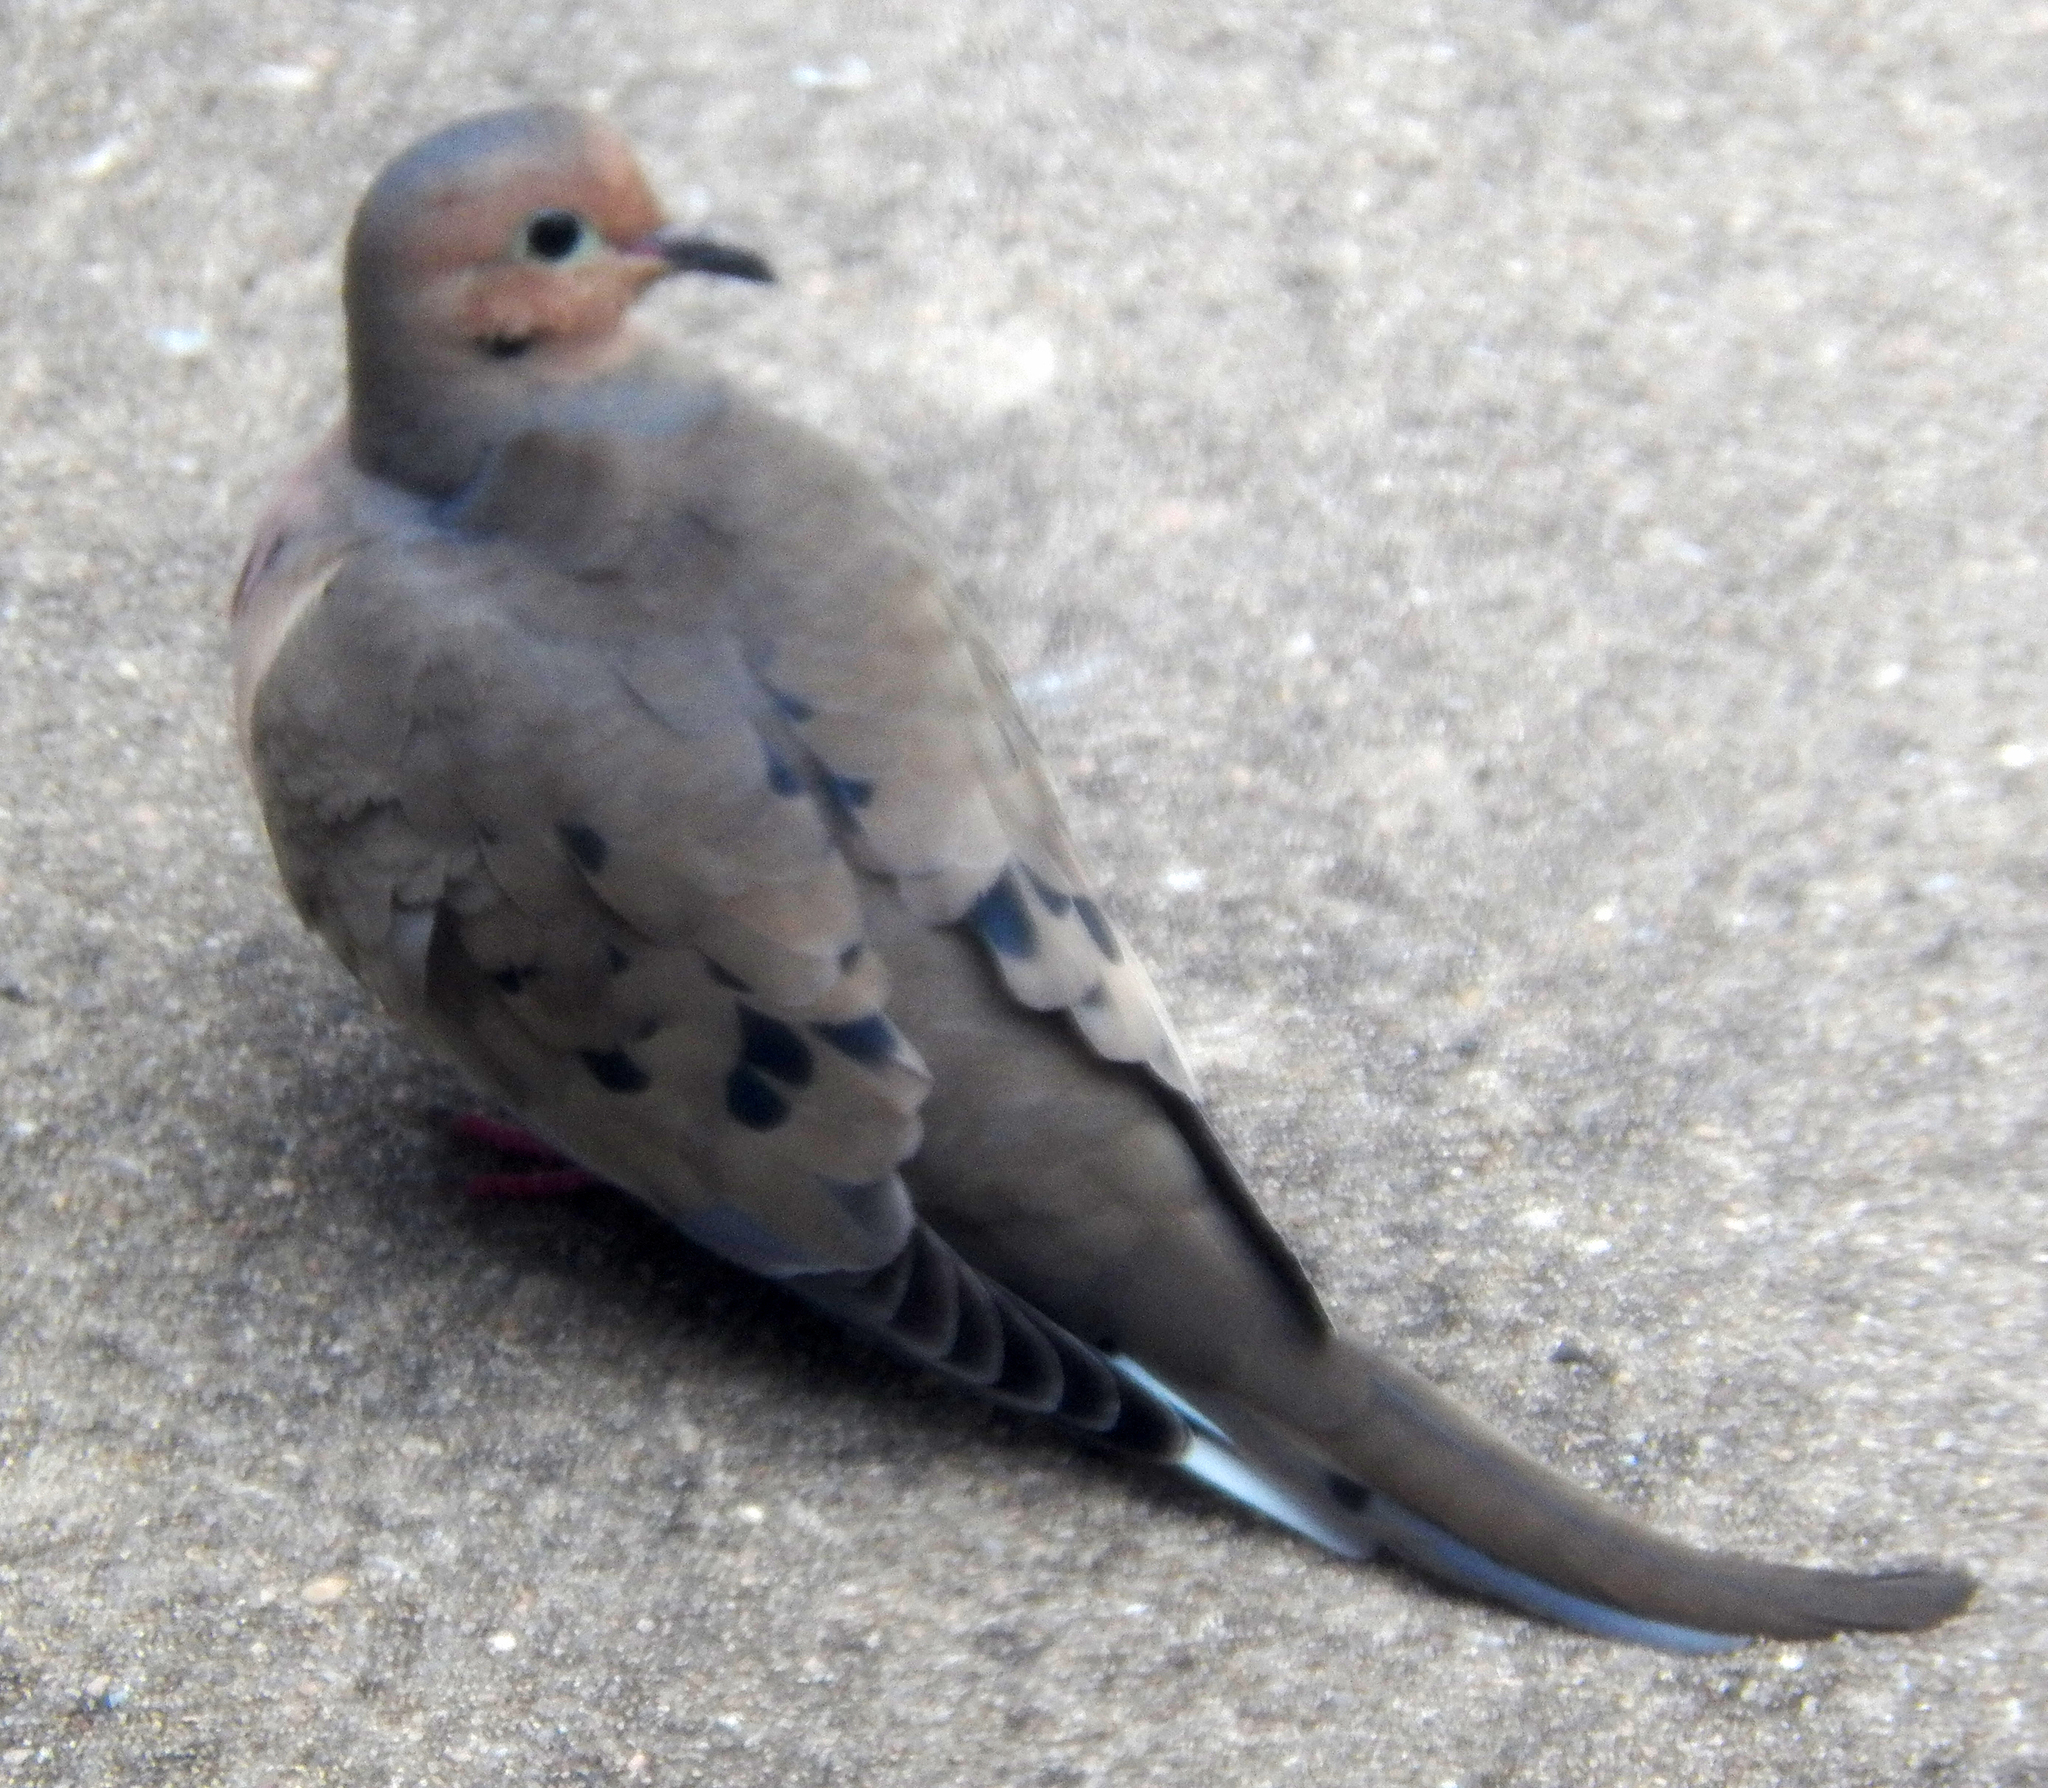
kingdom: Animalia
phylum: Chordata
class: Aves
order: Columbiformes
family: Columbidae
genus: Zenaida
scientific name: Zenaida macroura
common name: Mourning dove
